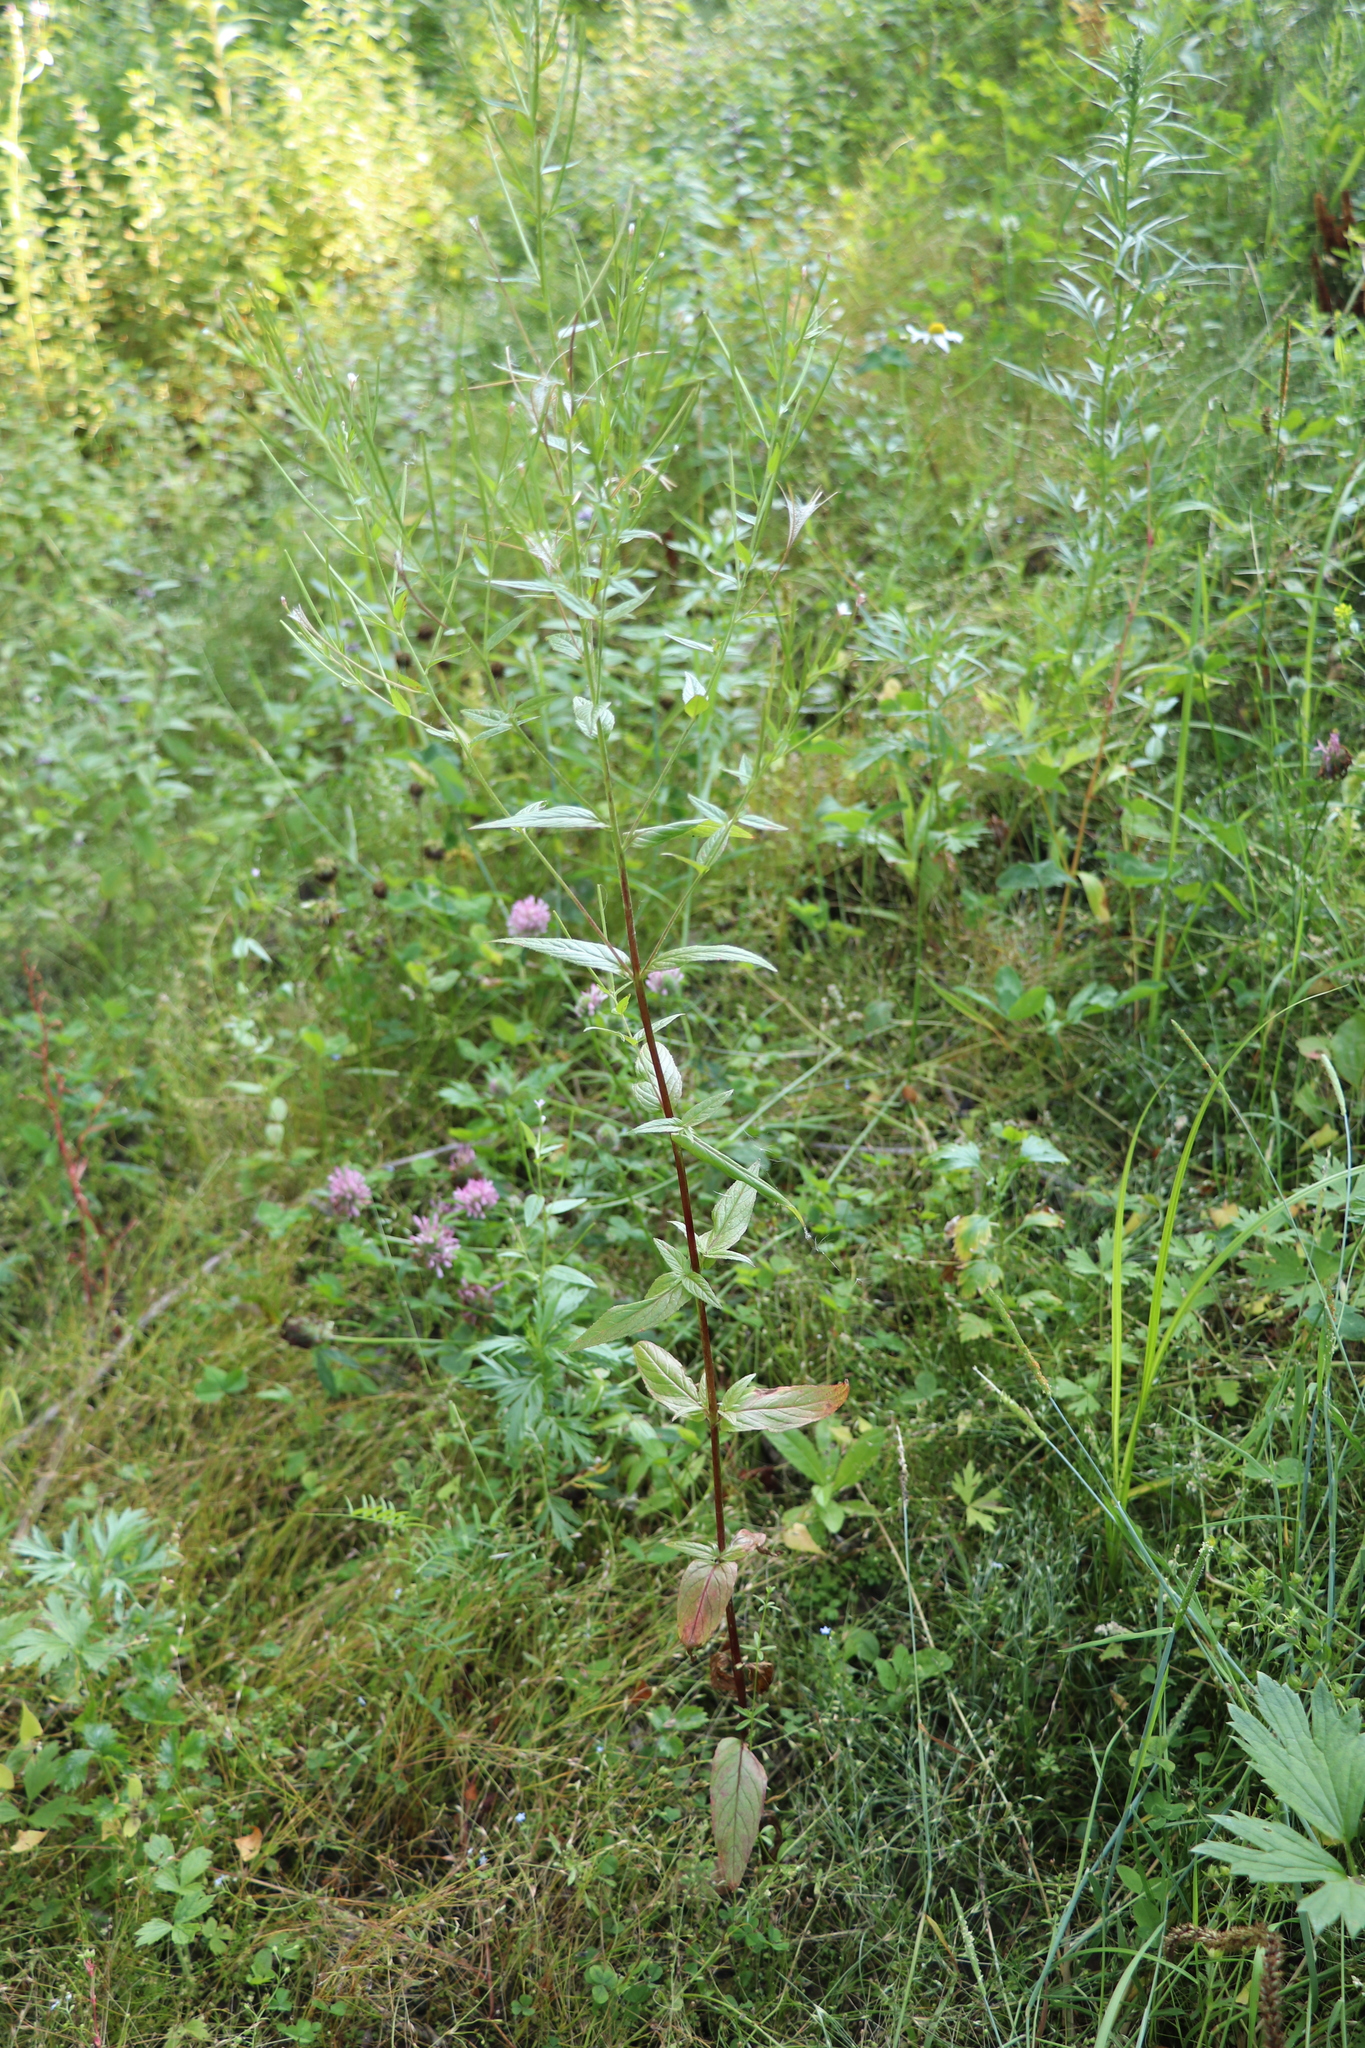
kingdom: Plantae
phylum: Tracheophyta
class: Magnoliopsida
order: Myrtales
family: Onagraceae
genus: Epilobium
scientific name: Epilobium pseudorubescens
